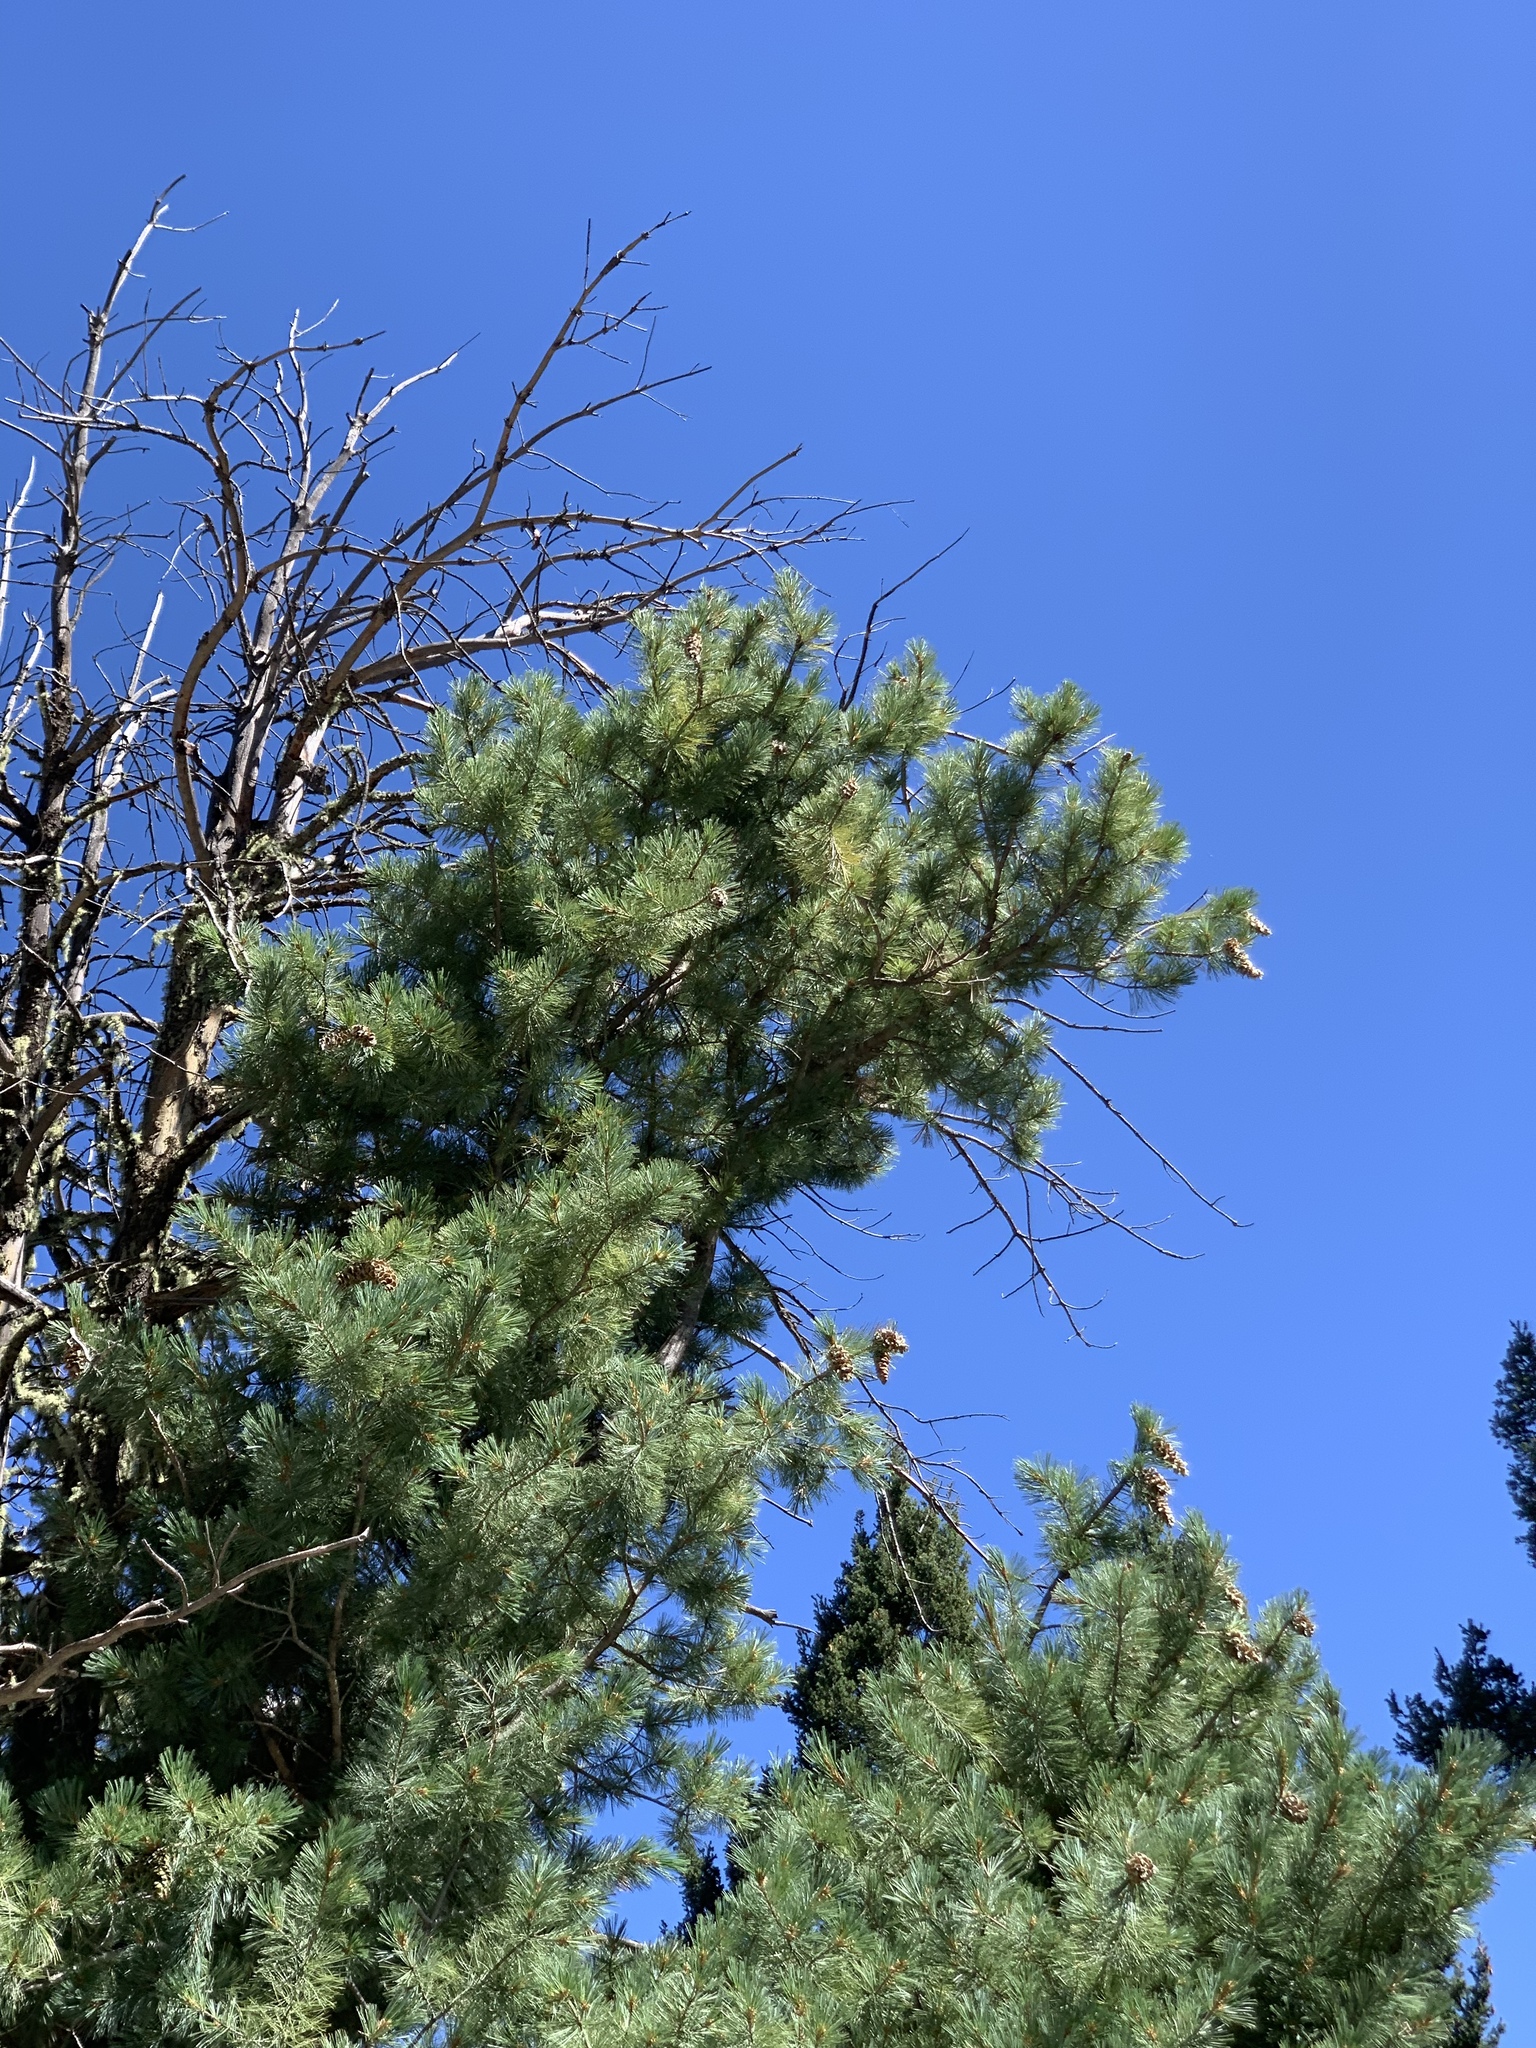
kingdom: Plantae
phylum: Tracheophyta
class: Pinopsida
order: Pinales
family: Pinaceae
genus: Pinus
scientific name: Pinus strobiformis
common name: Southwestern white pine
